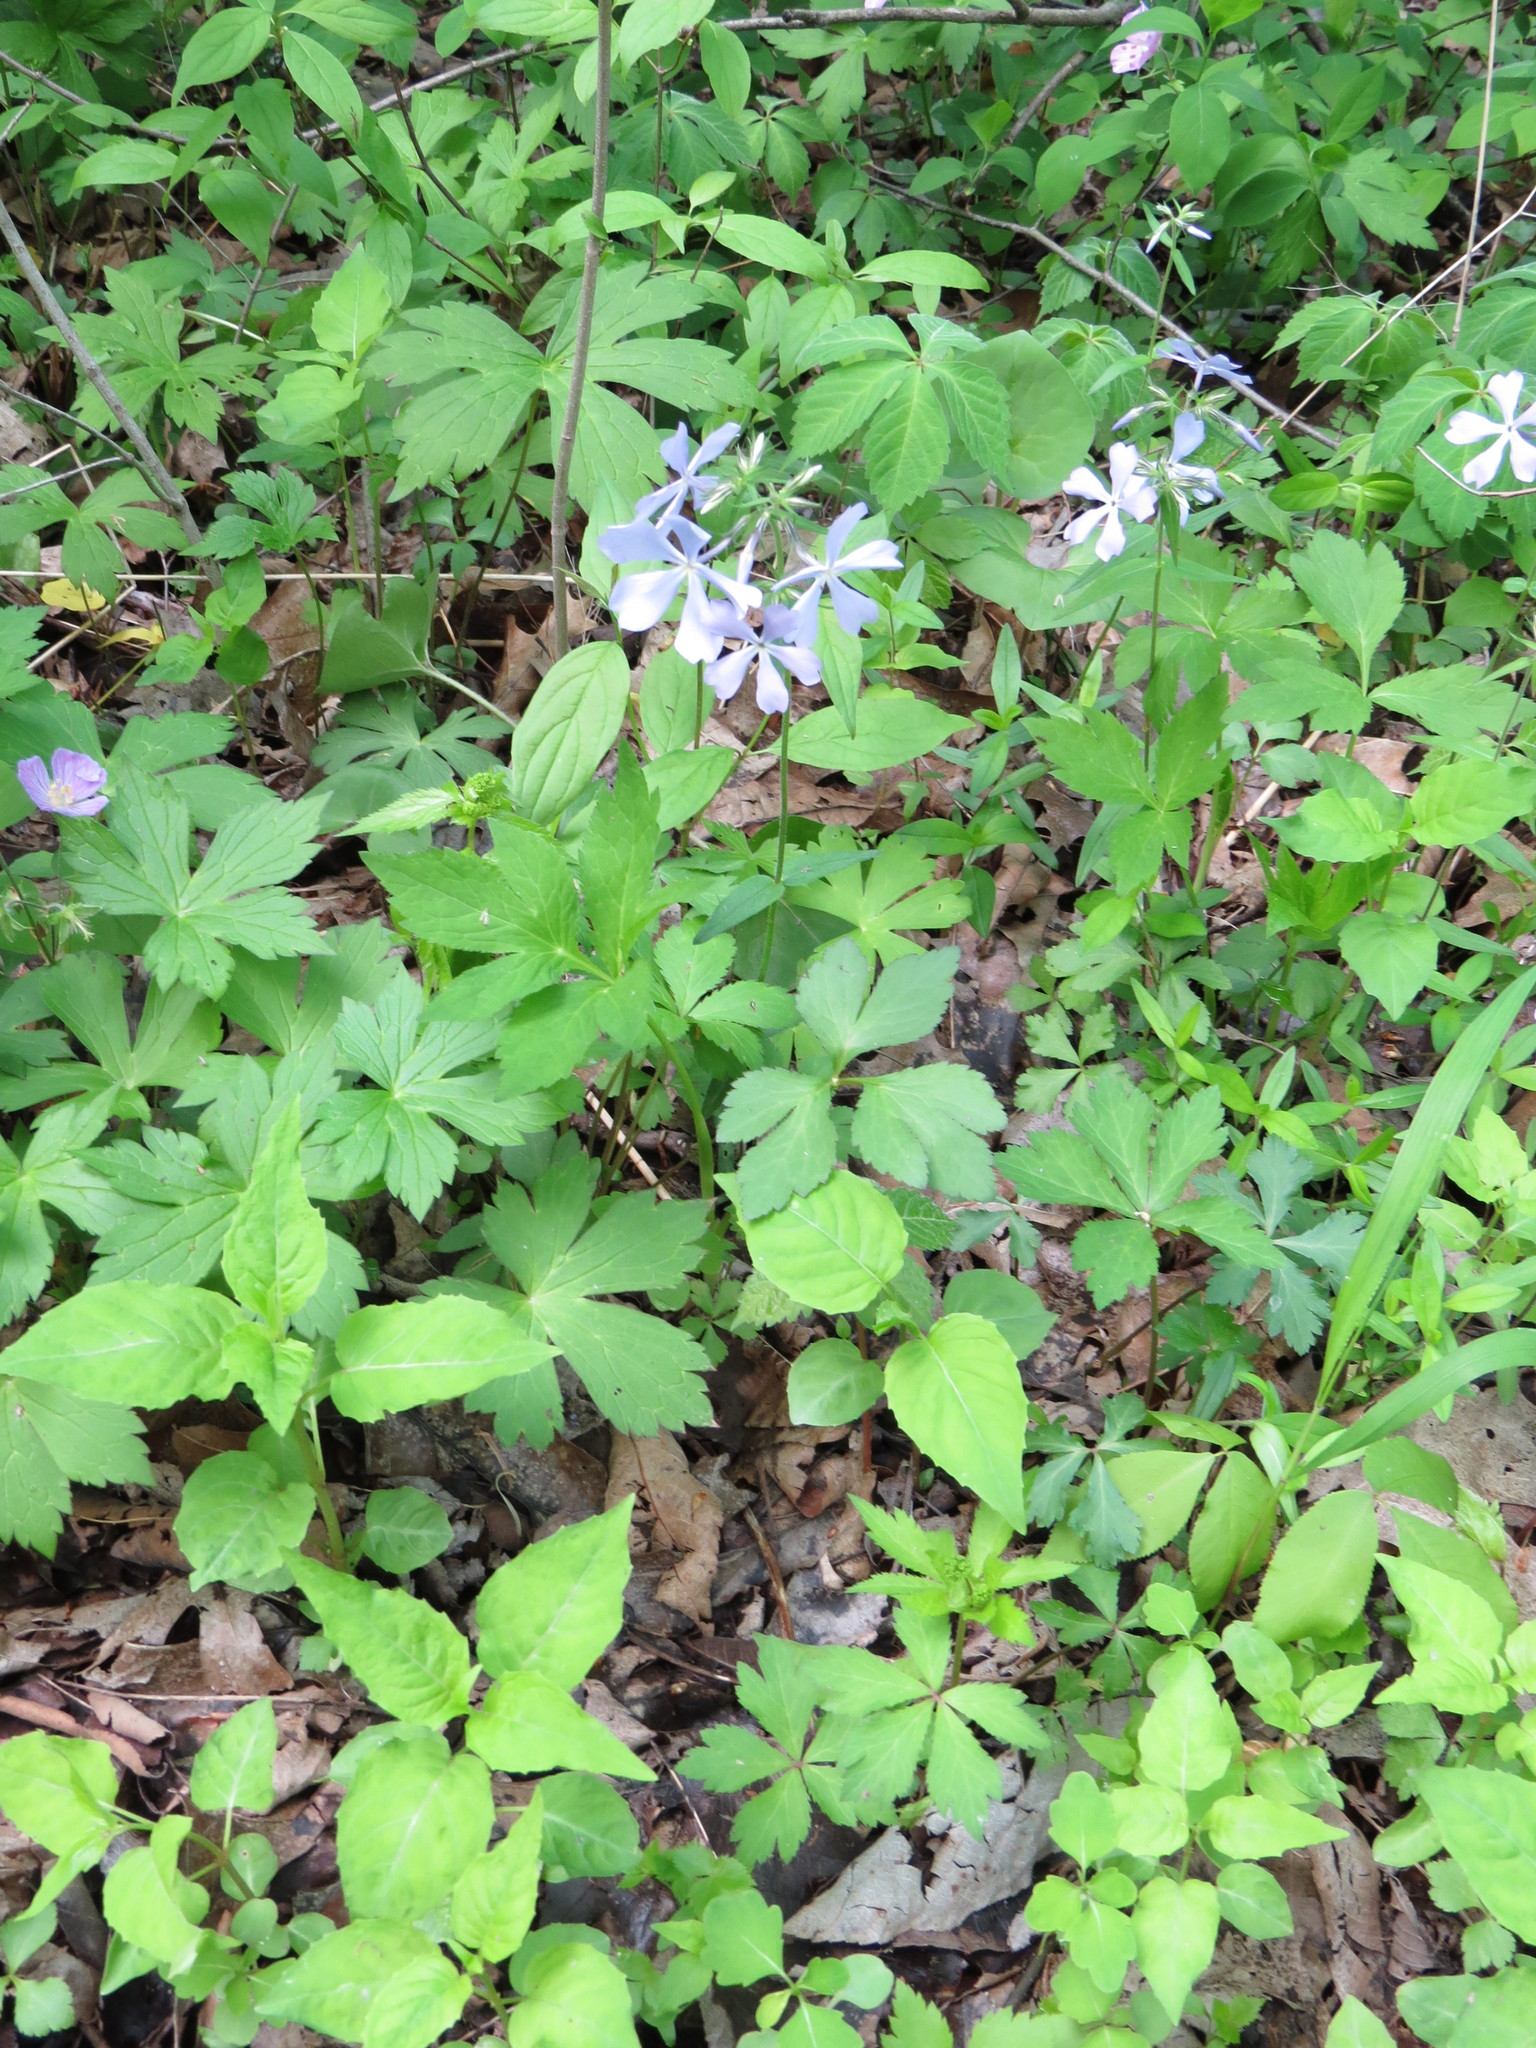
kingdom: Plantae
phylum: Tracheophyta
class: Magnoliopsida
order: Ericales
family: Polemoniaceae
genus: Phlox
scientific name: Phlox divaricata
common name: Blue phlox
